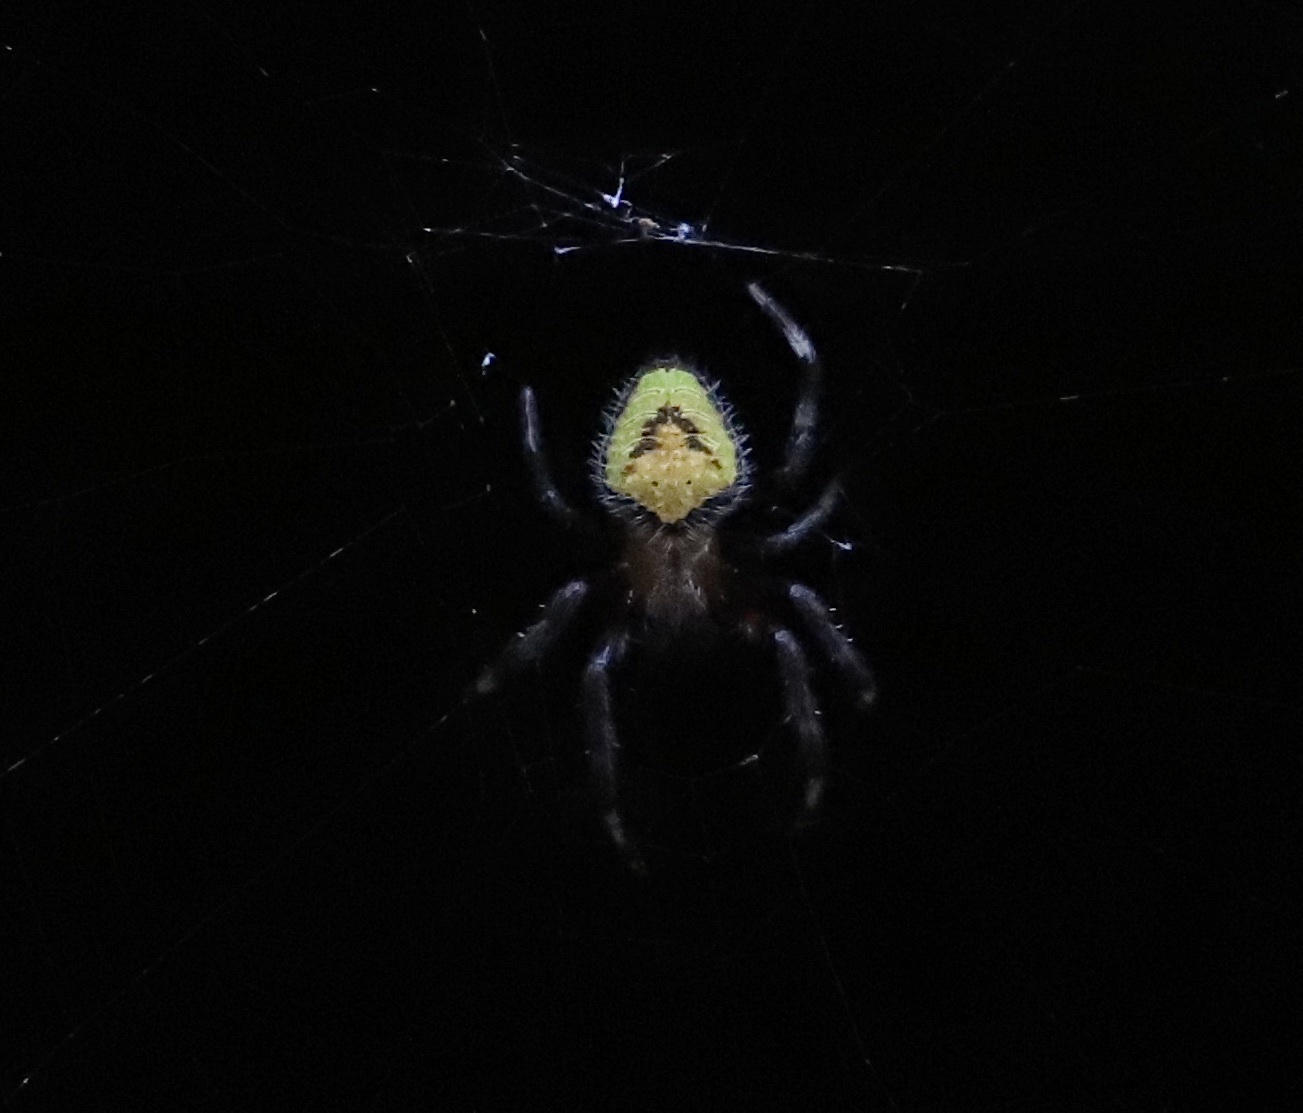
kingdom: Animalia
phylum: Arthropoda
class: Arachnida
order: Araneae
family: Araneidae
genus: Eriophora
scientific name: Eriophora ravilla
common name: Orb weavers
